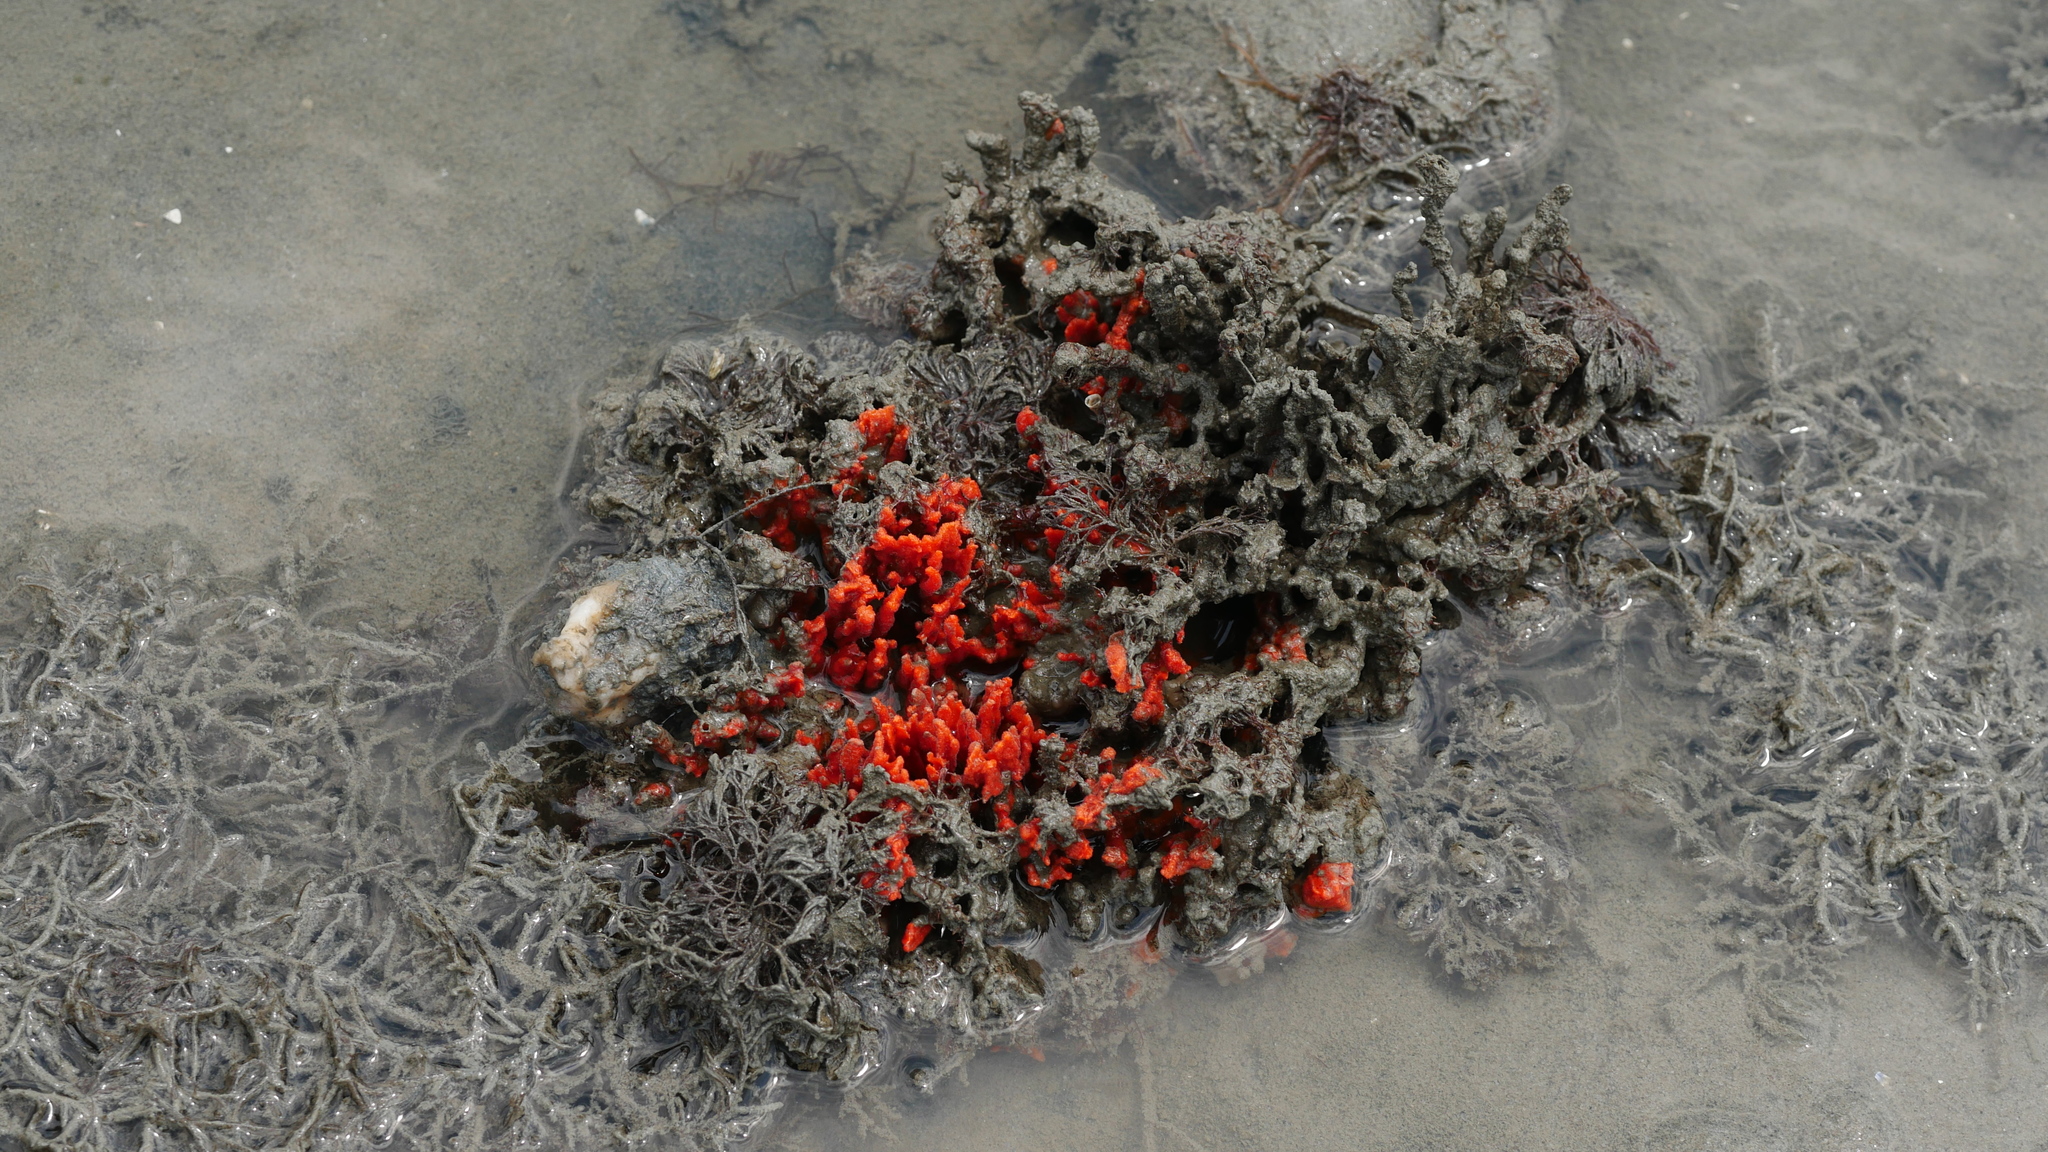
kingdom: Animalia
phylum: Porifera
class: Demospongiae
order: Poecilosclerida
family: Microcionidae
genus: Clathria
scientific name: Clathria prolifera
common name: Red beard sponge
